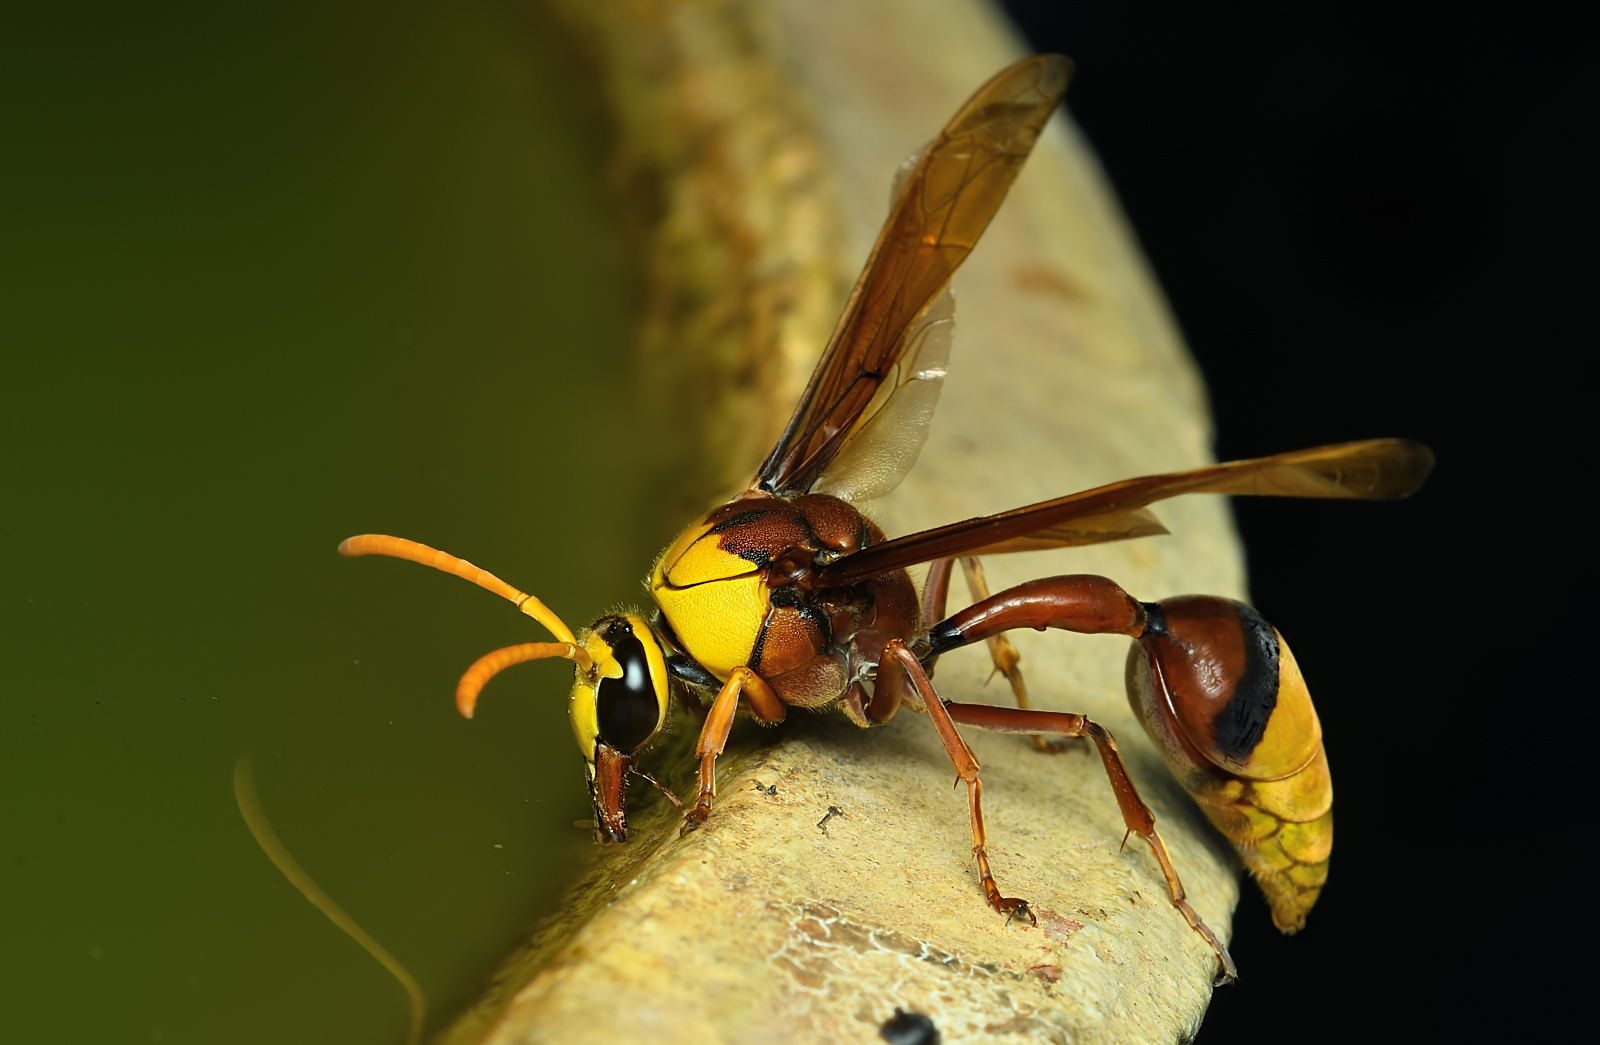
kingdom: Animalia
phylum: Arthropoda
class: Insecta
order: Hymenoptera
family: Eumenidae
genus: Delta
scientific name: Delta pyriforme
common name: Wasp
